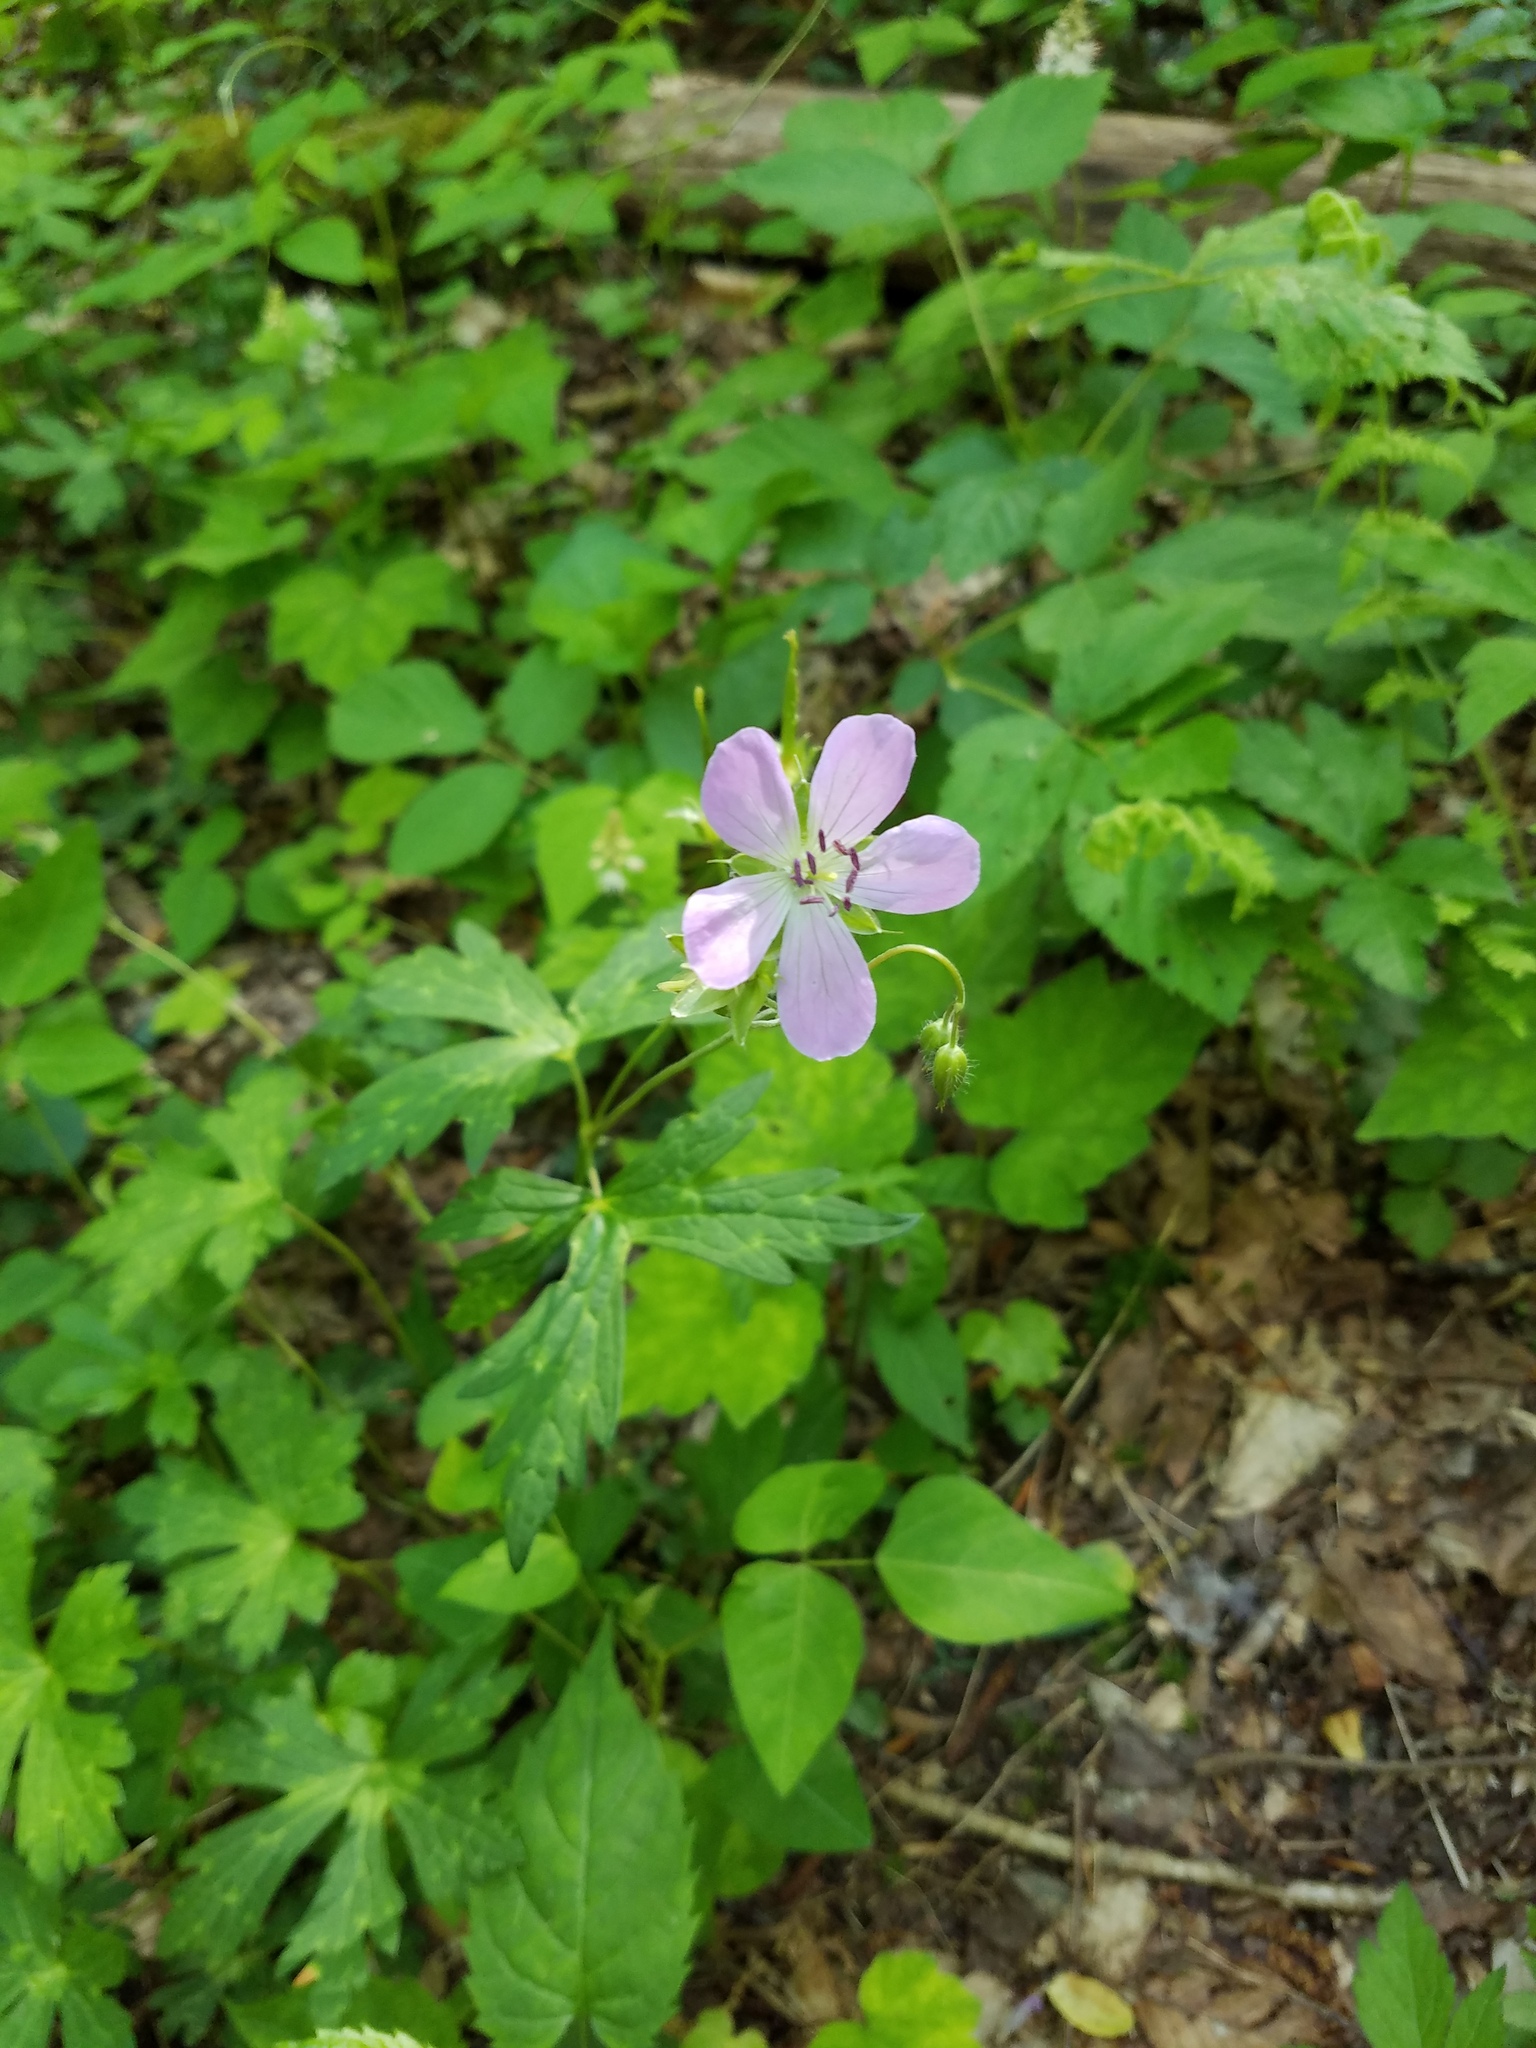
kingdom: Plantae
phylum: Tracheophyta
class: Magnoliopsida
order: Geraniales
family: Geraniaceae
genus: Geranium
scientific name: Geranium maculatum
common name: Spotted geranium
